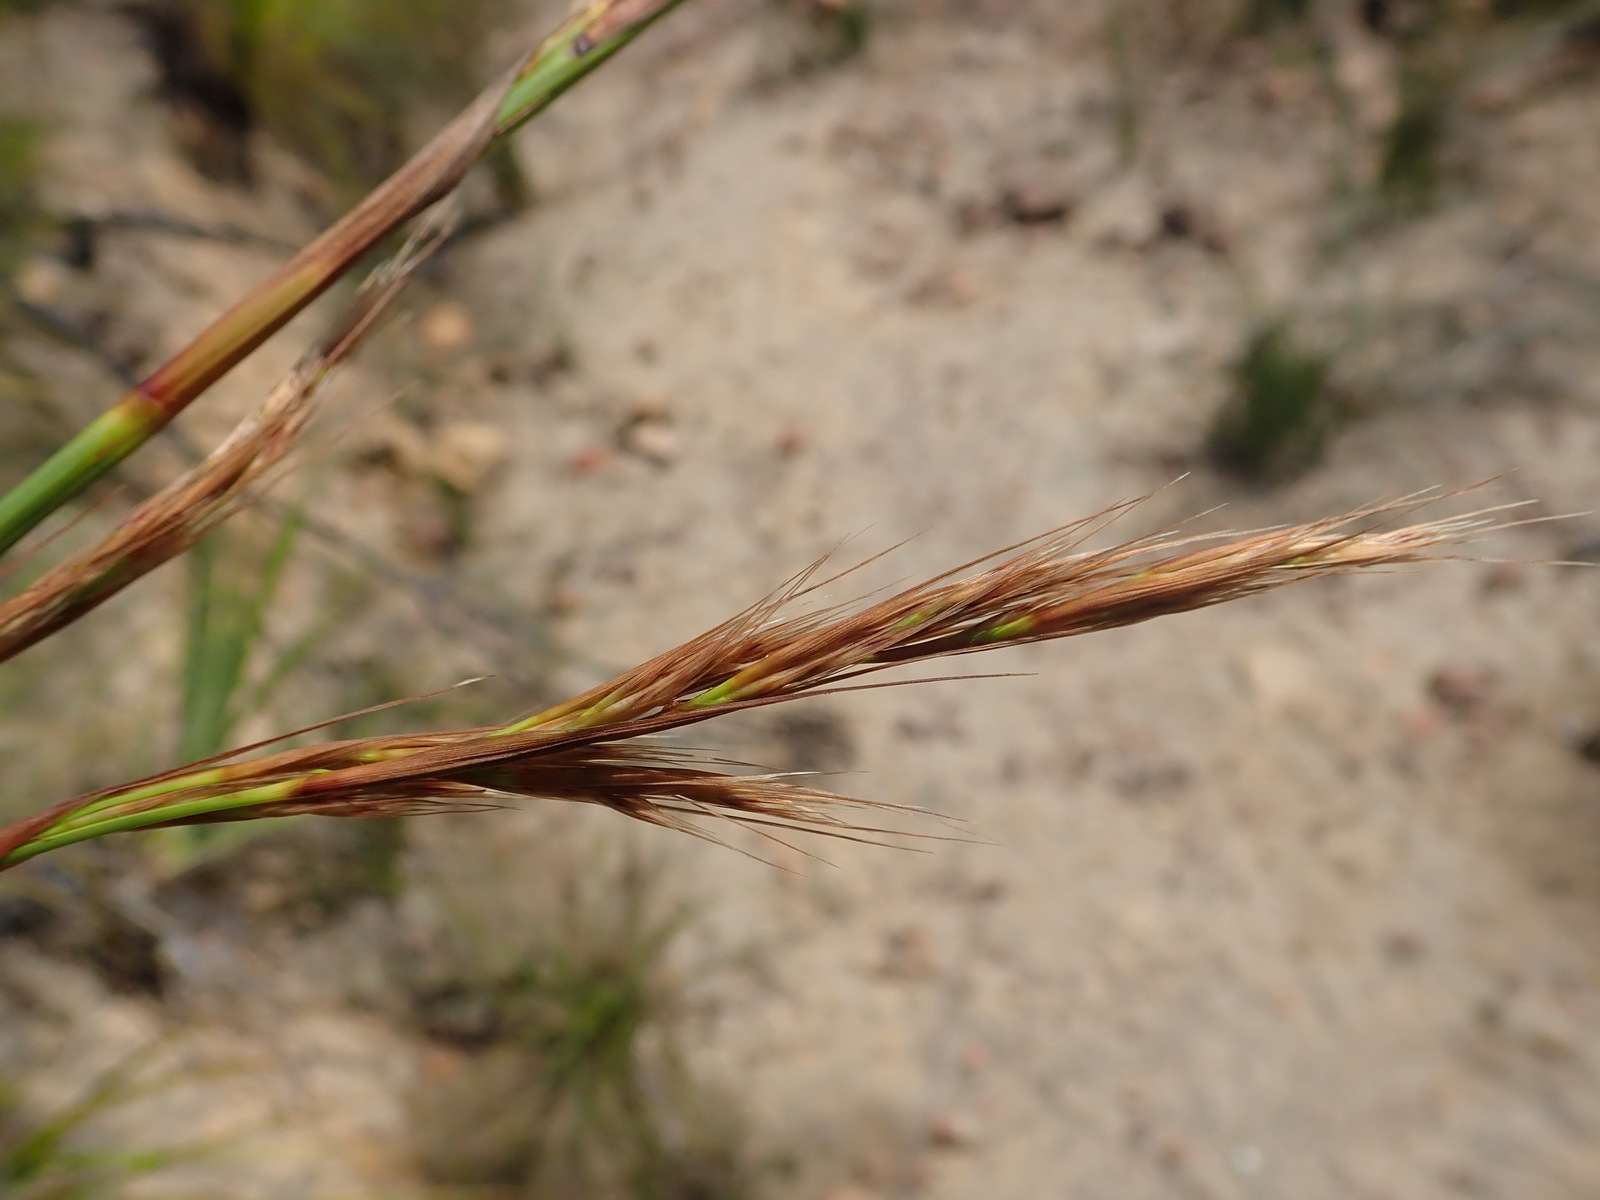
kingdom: Plantae
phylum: Tracheophyta
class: Liliopsida
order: Poales
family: Cyperaceae
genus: Tetraria
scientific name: Tetraria involucrata
